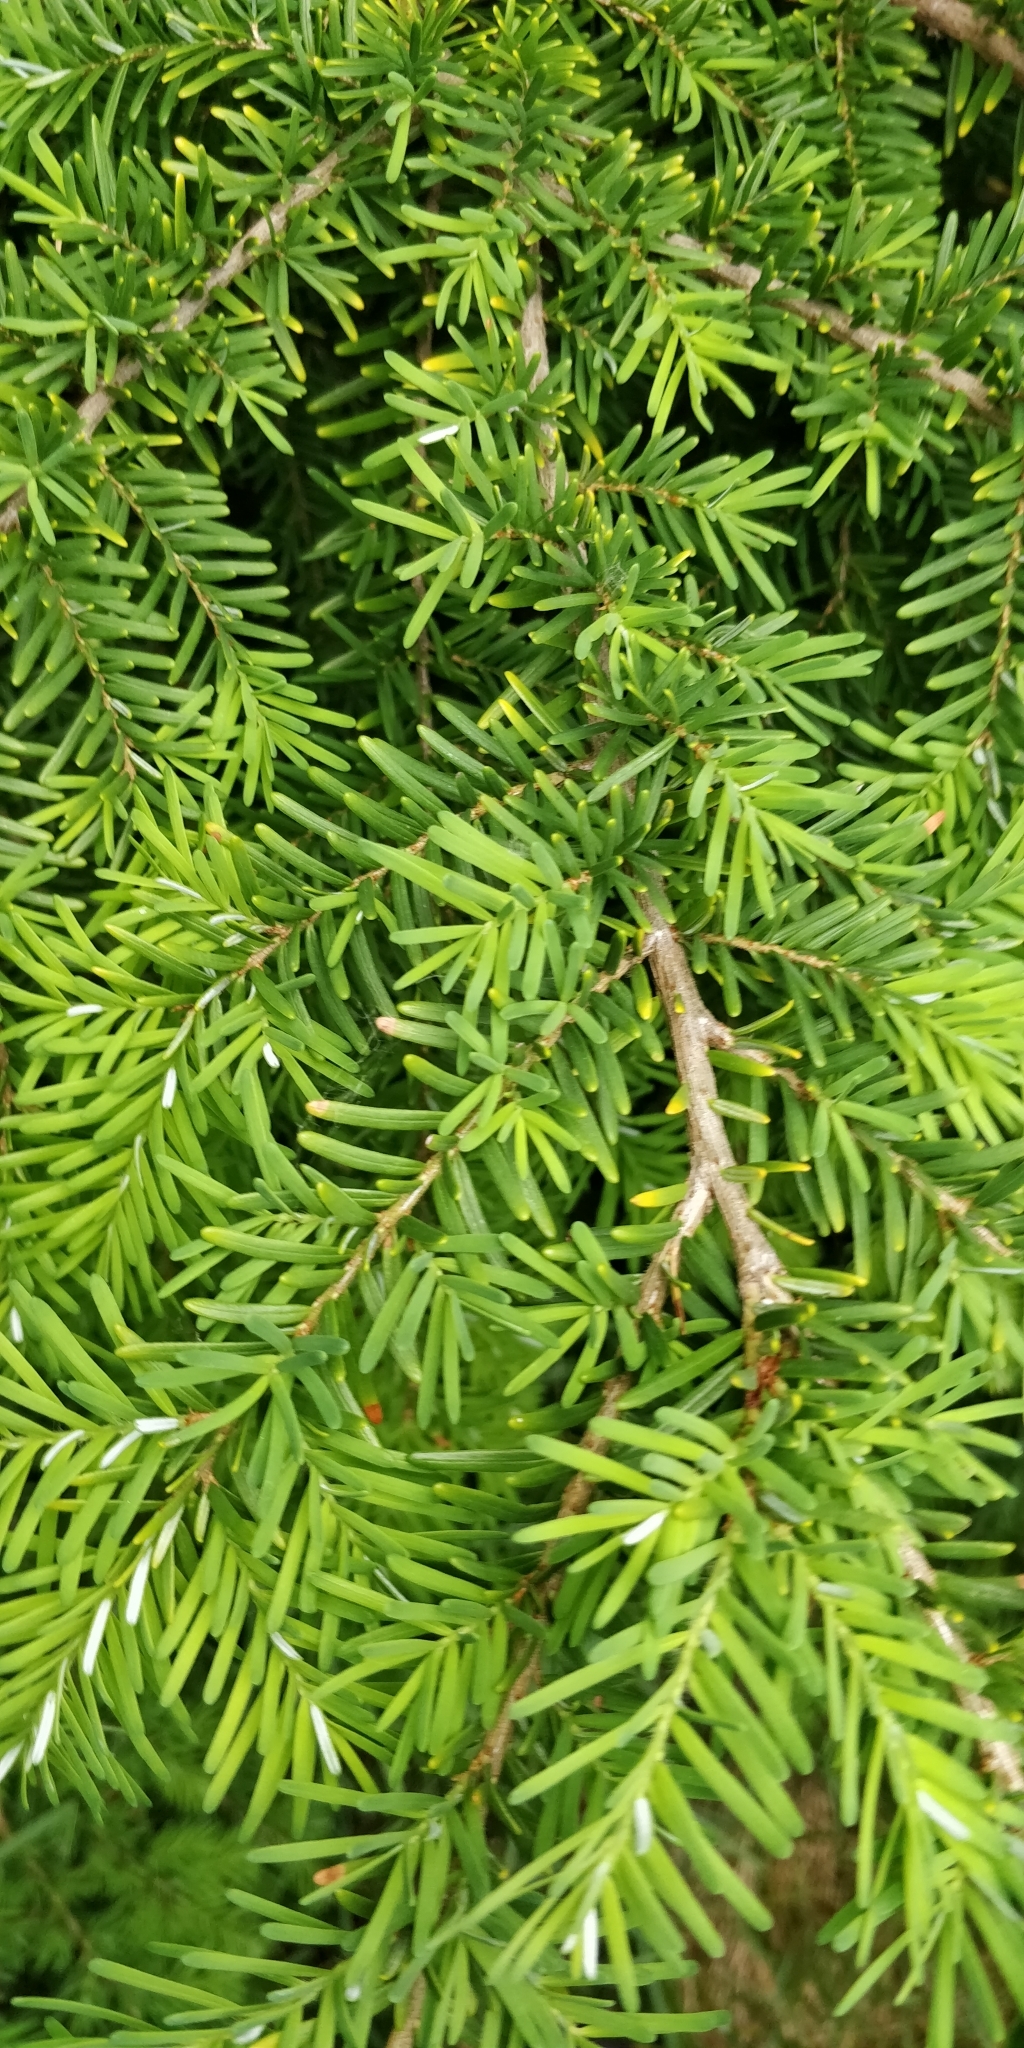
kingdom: Plantae
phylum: Tracheophyta
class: Pinopsida
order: Pinales
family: Pinaceae
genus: Tsuga
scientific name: Tsuga heterophylla
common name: Western hemlock
